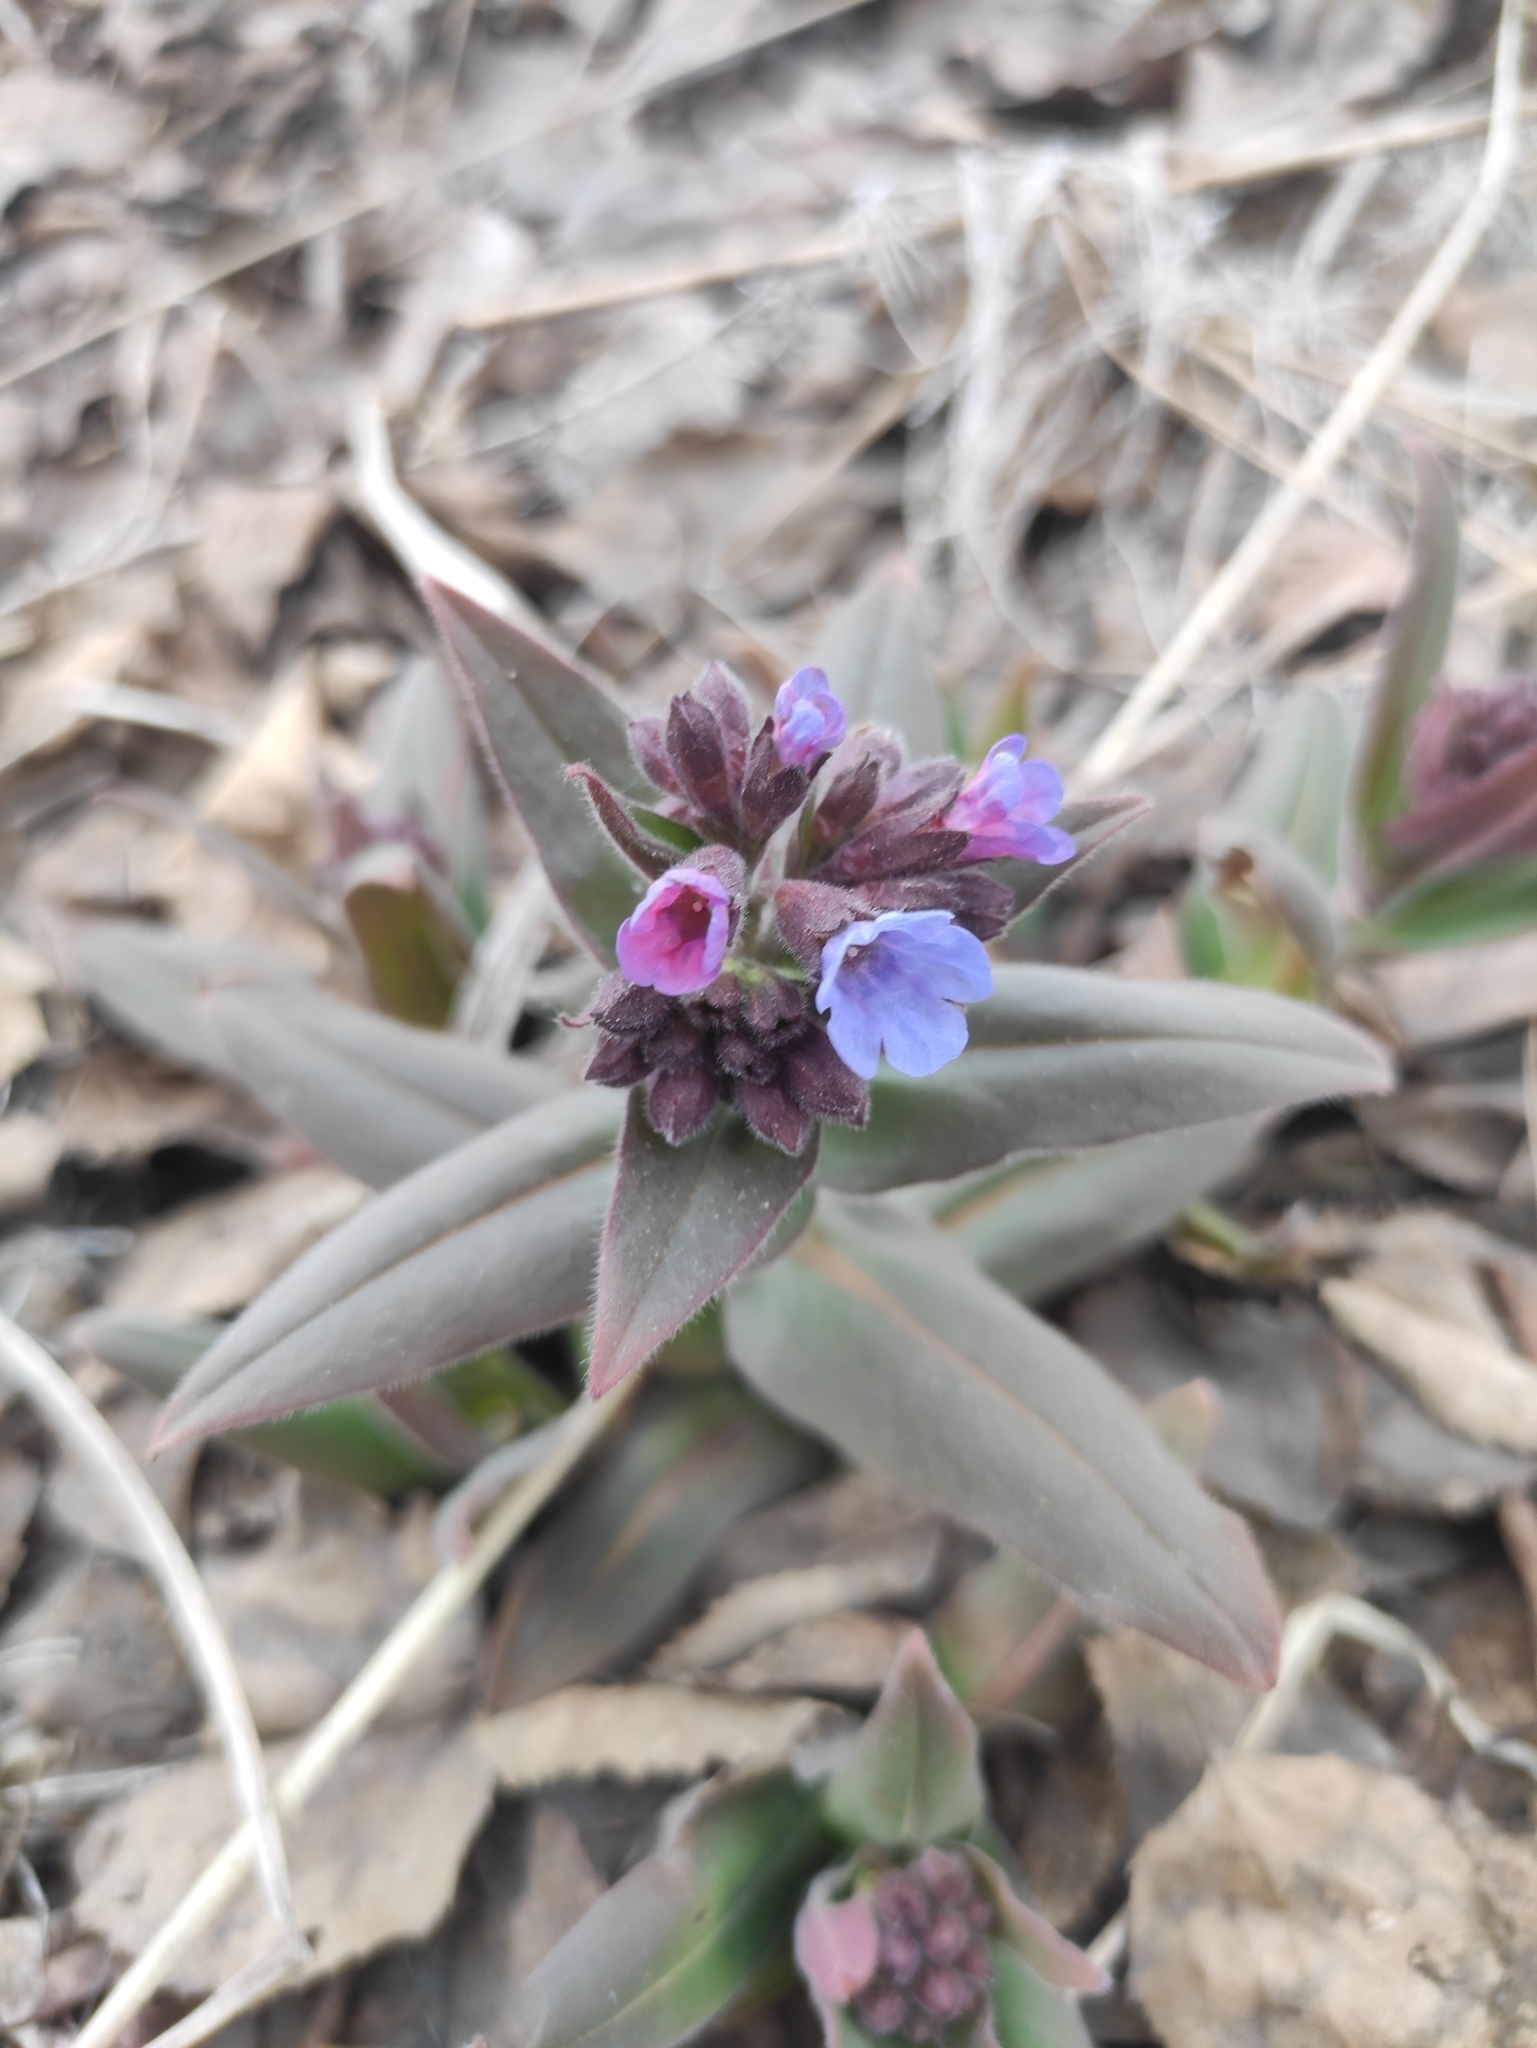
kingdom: Plantae
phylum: Tracheophyta
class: Magnoliopsida
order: Boraginales
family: Boraginaceae
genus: Pulmonaria
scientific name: Pulmonaria mollis
